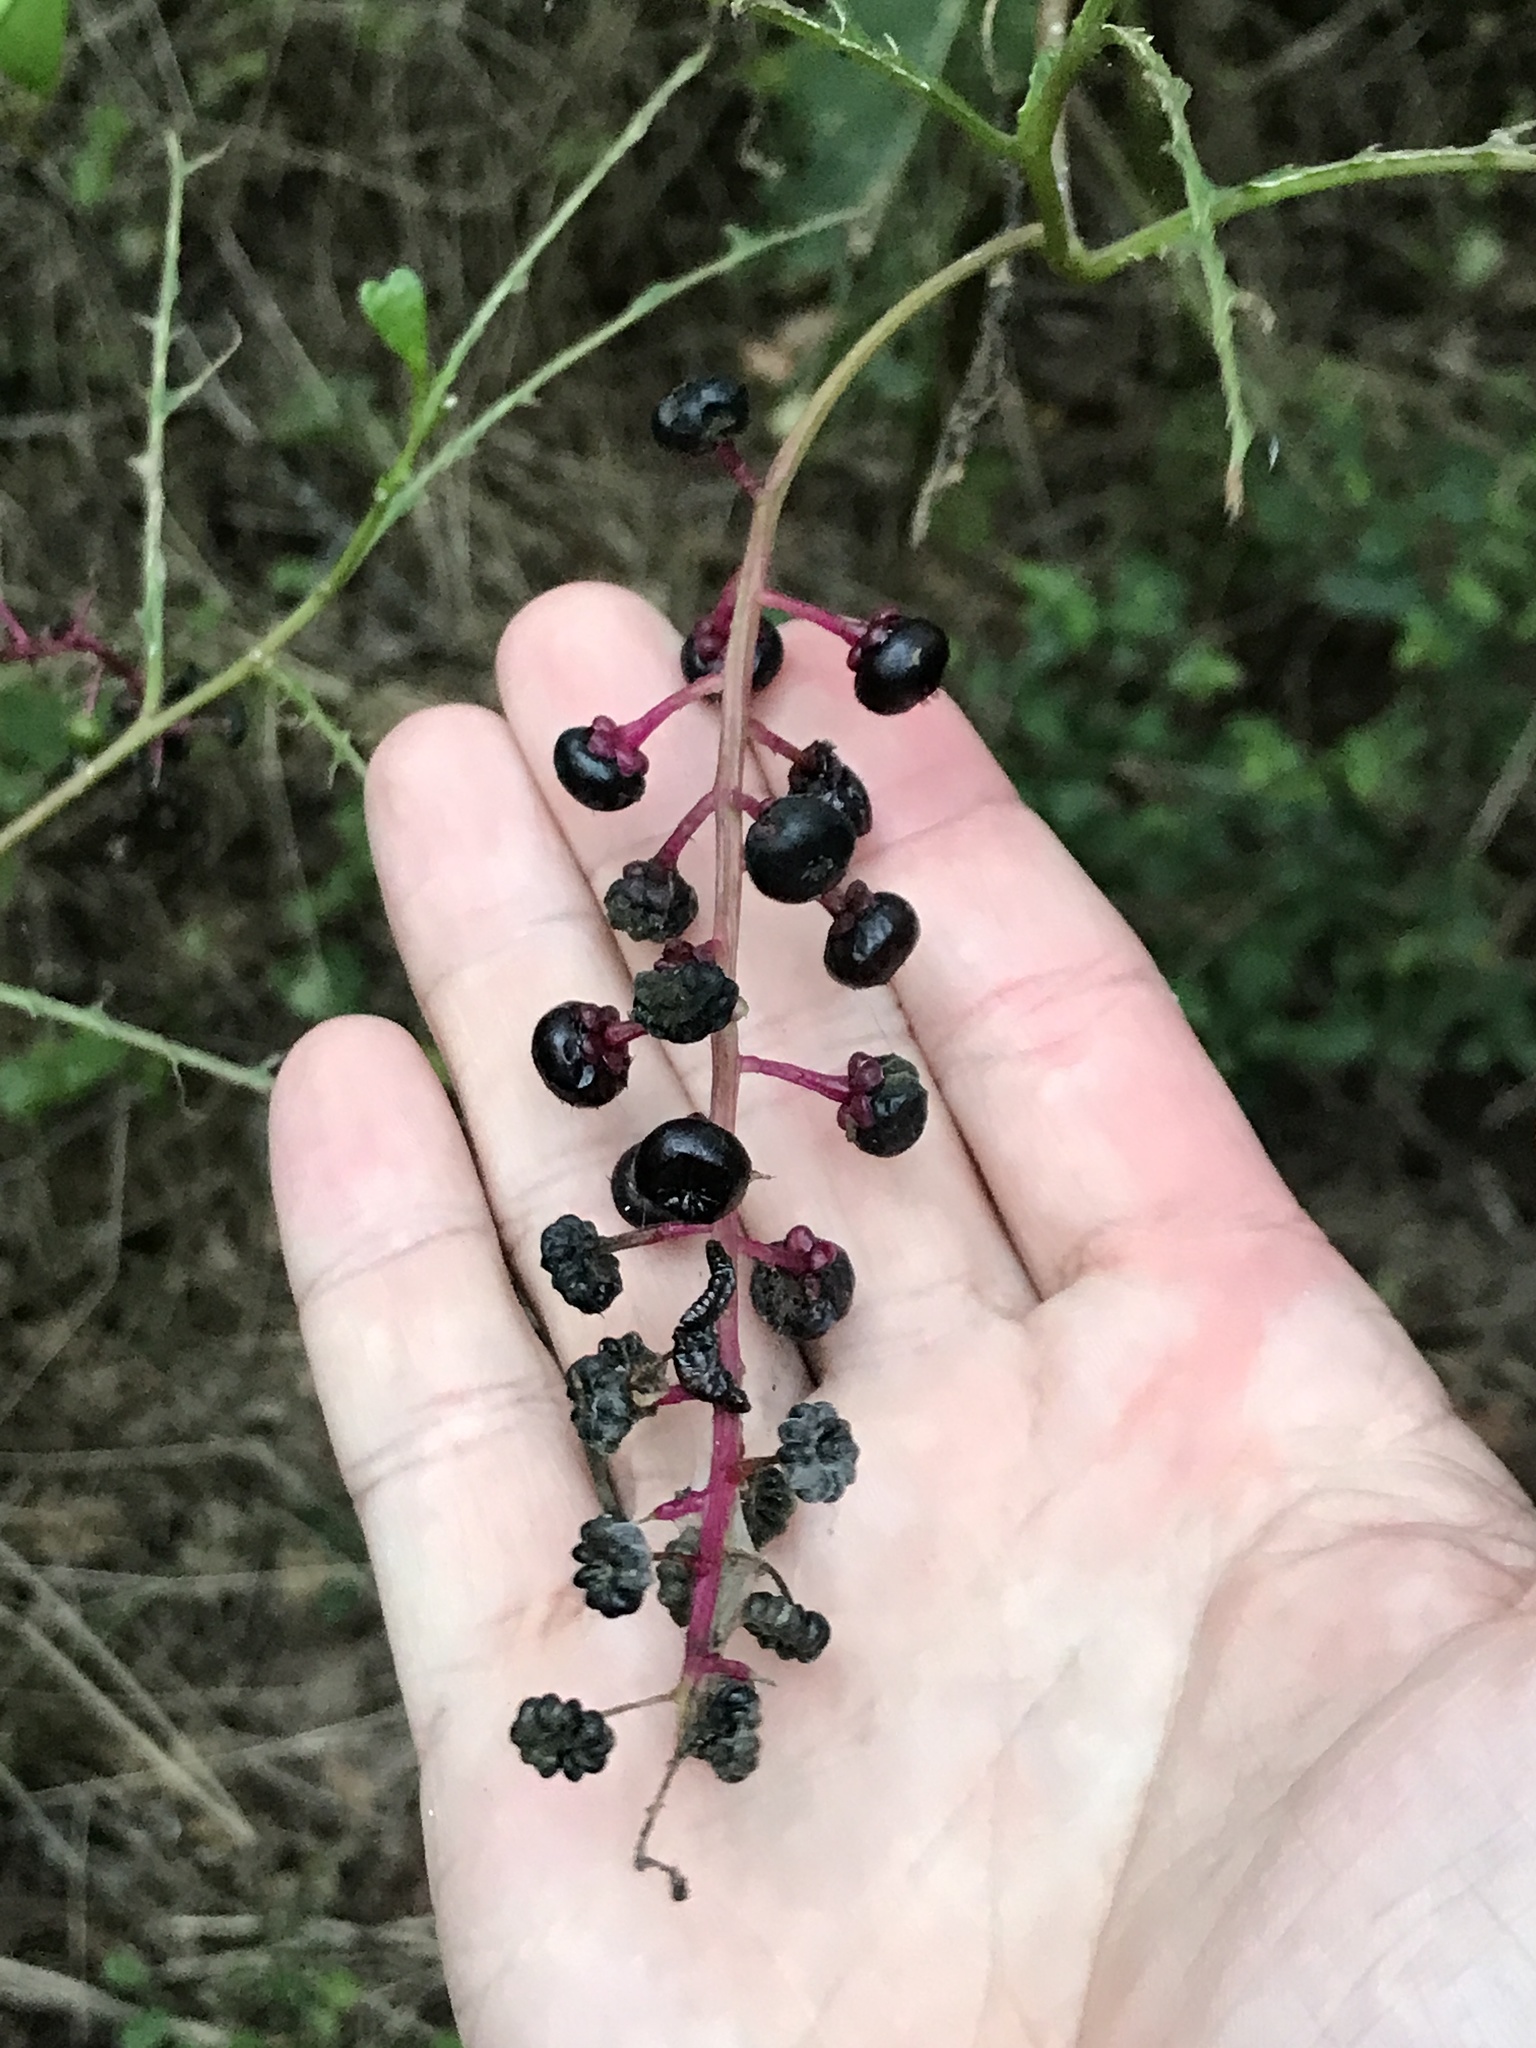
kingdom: Plantae
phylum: Tracheophyta
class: Magnoliopsida
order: Caryophyllales
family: Phytolaccaceae
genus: Phytolacca
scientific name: Phytolacca americana
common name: American pokeweed
